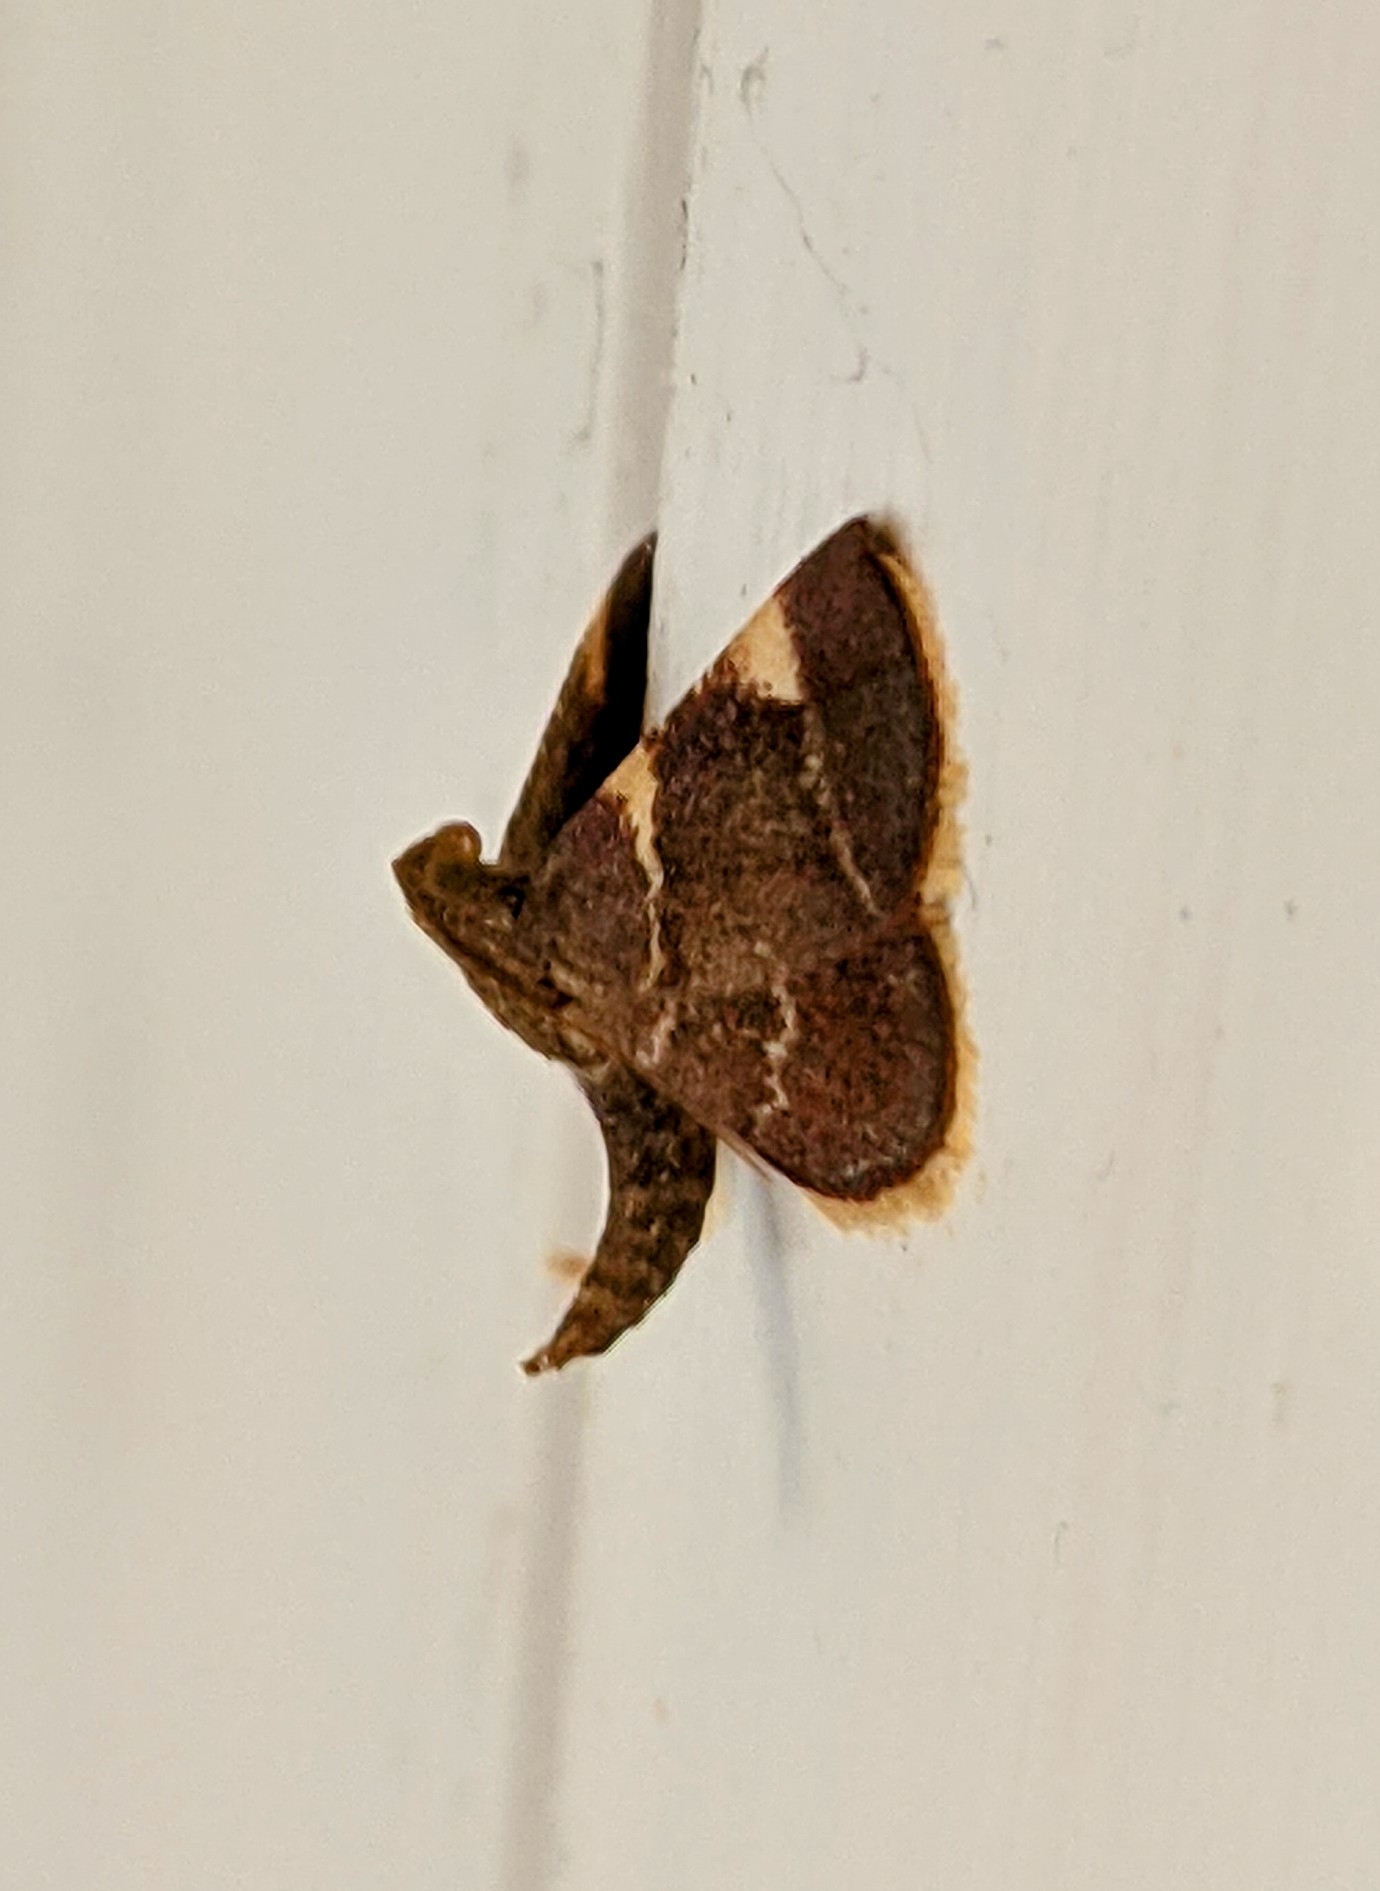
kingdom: Animalia
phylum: Arthropoda
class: Insecta
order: Lepidoptera
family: Pyralidae
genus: Hypsopygia
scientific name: Hypsopygia olinalis
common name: Yellow-fringed dolichomia moth
